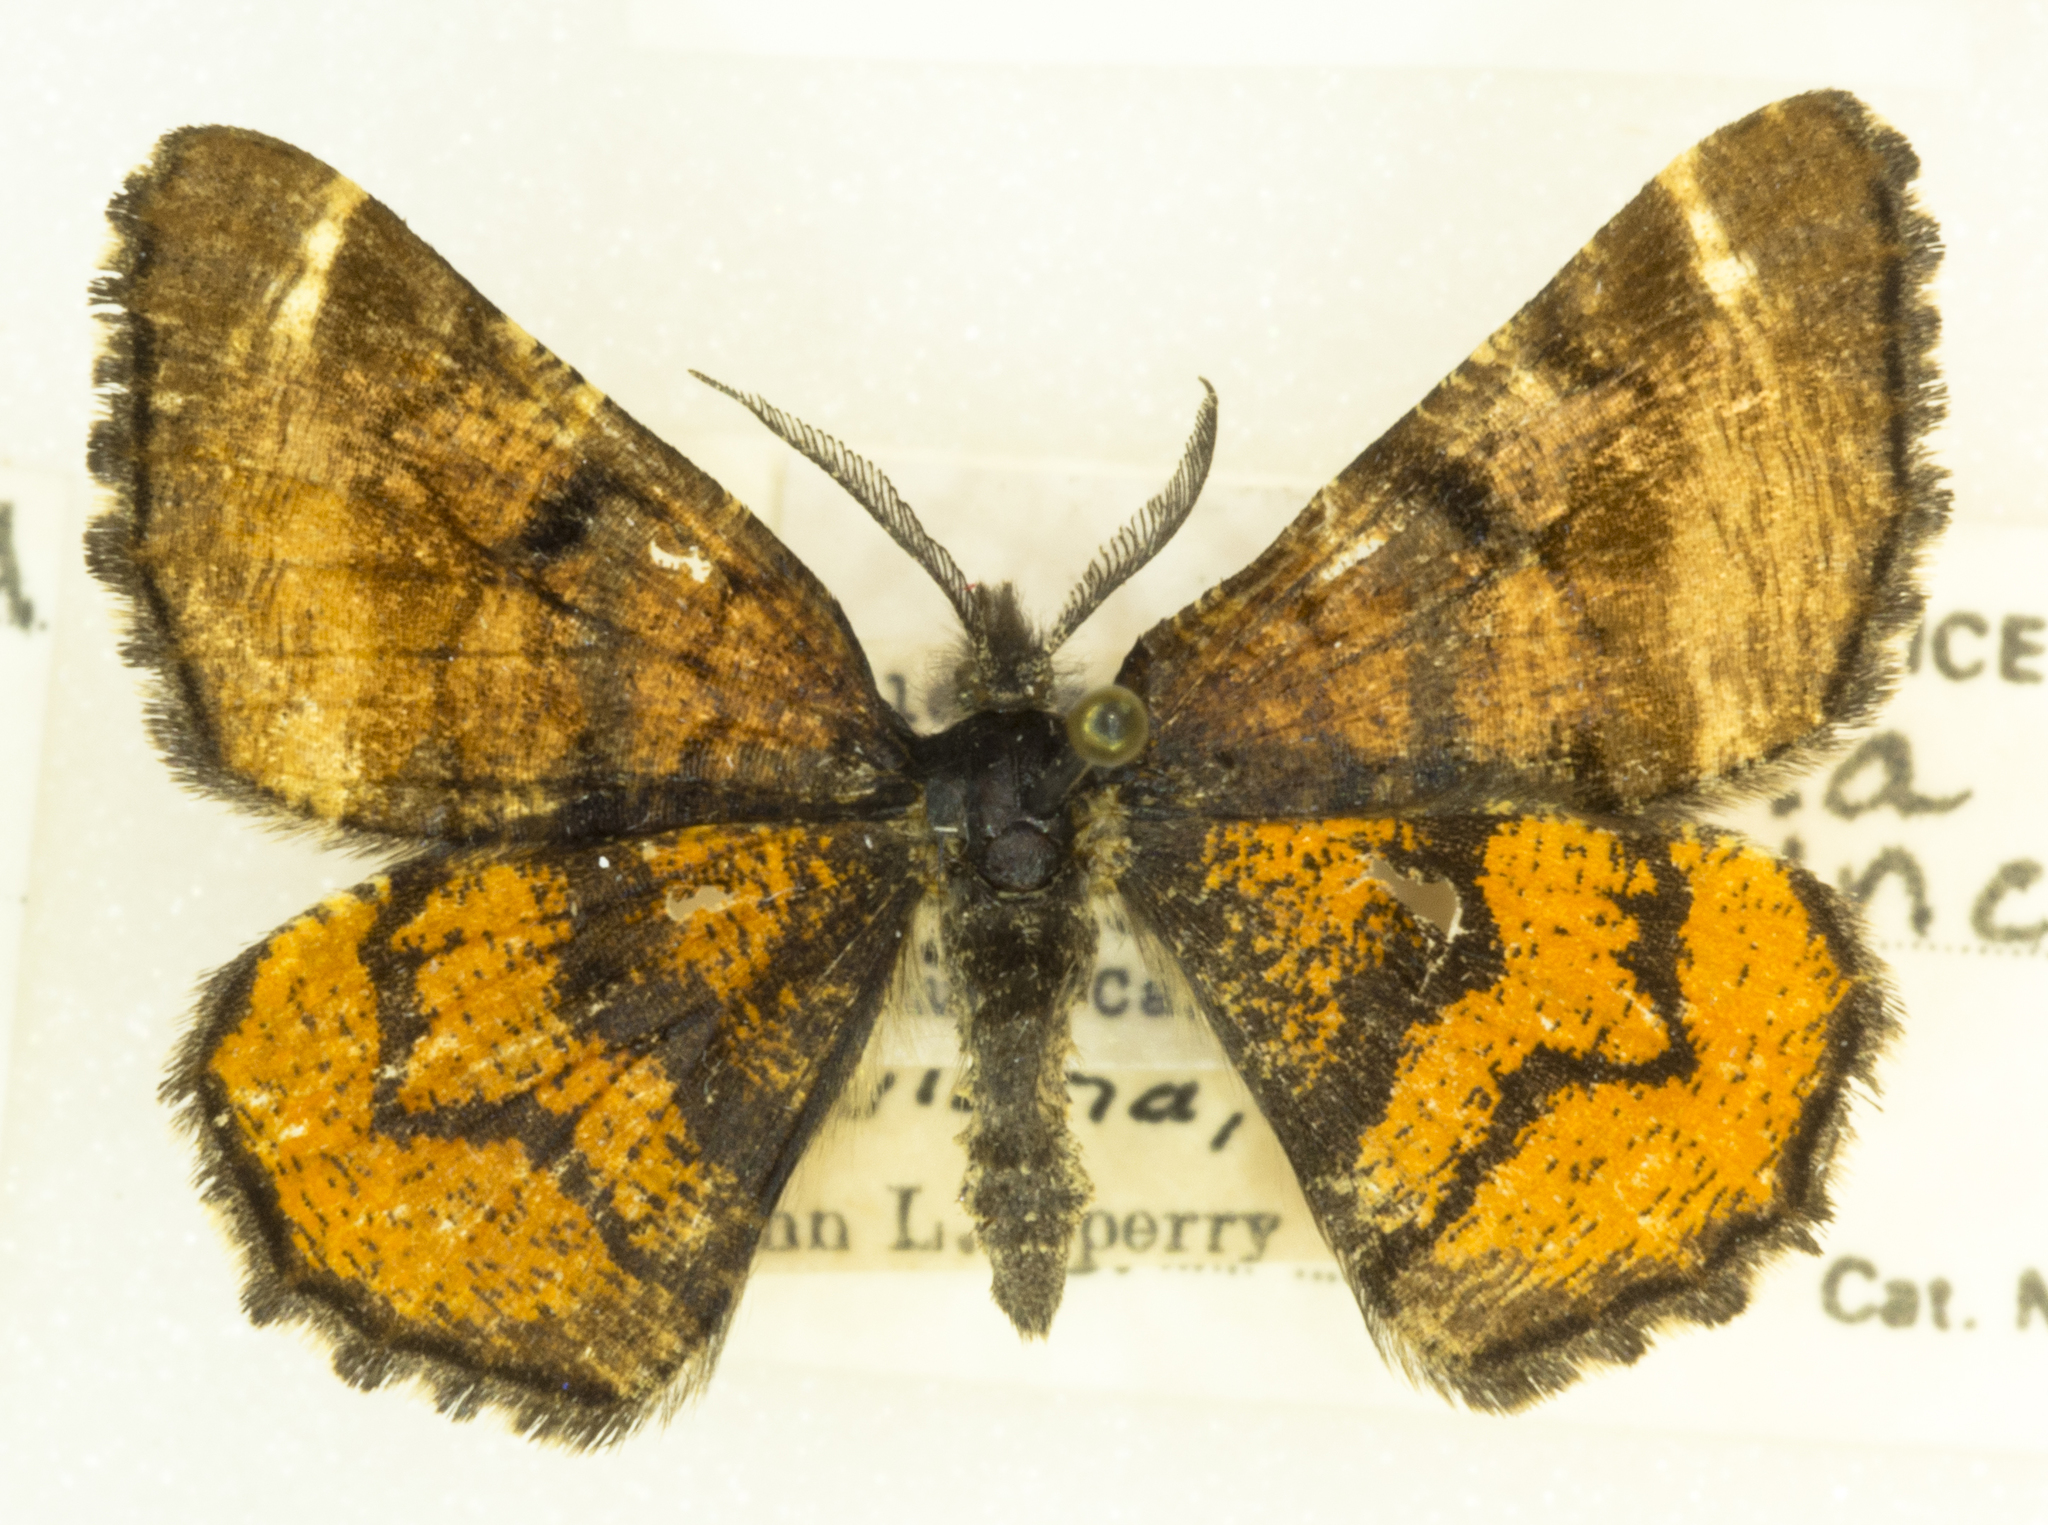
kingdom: Animalia
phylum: Arthropoda
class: Insecta
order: Lepidoptera
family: Geometridae
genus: Dasyfidonia
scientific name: Dasyfidonia avuncularia
